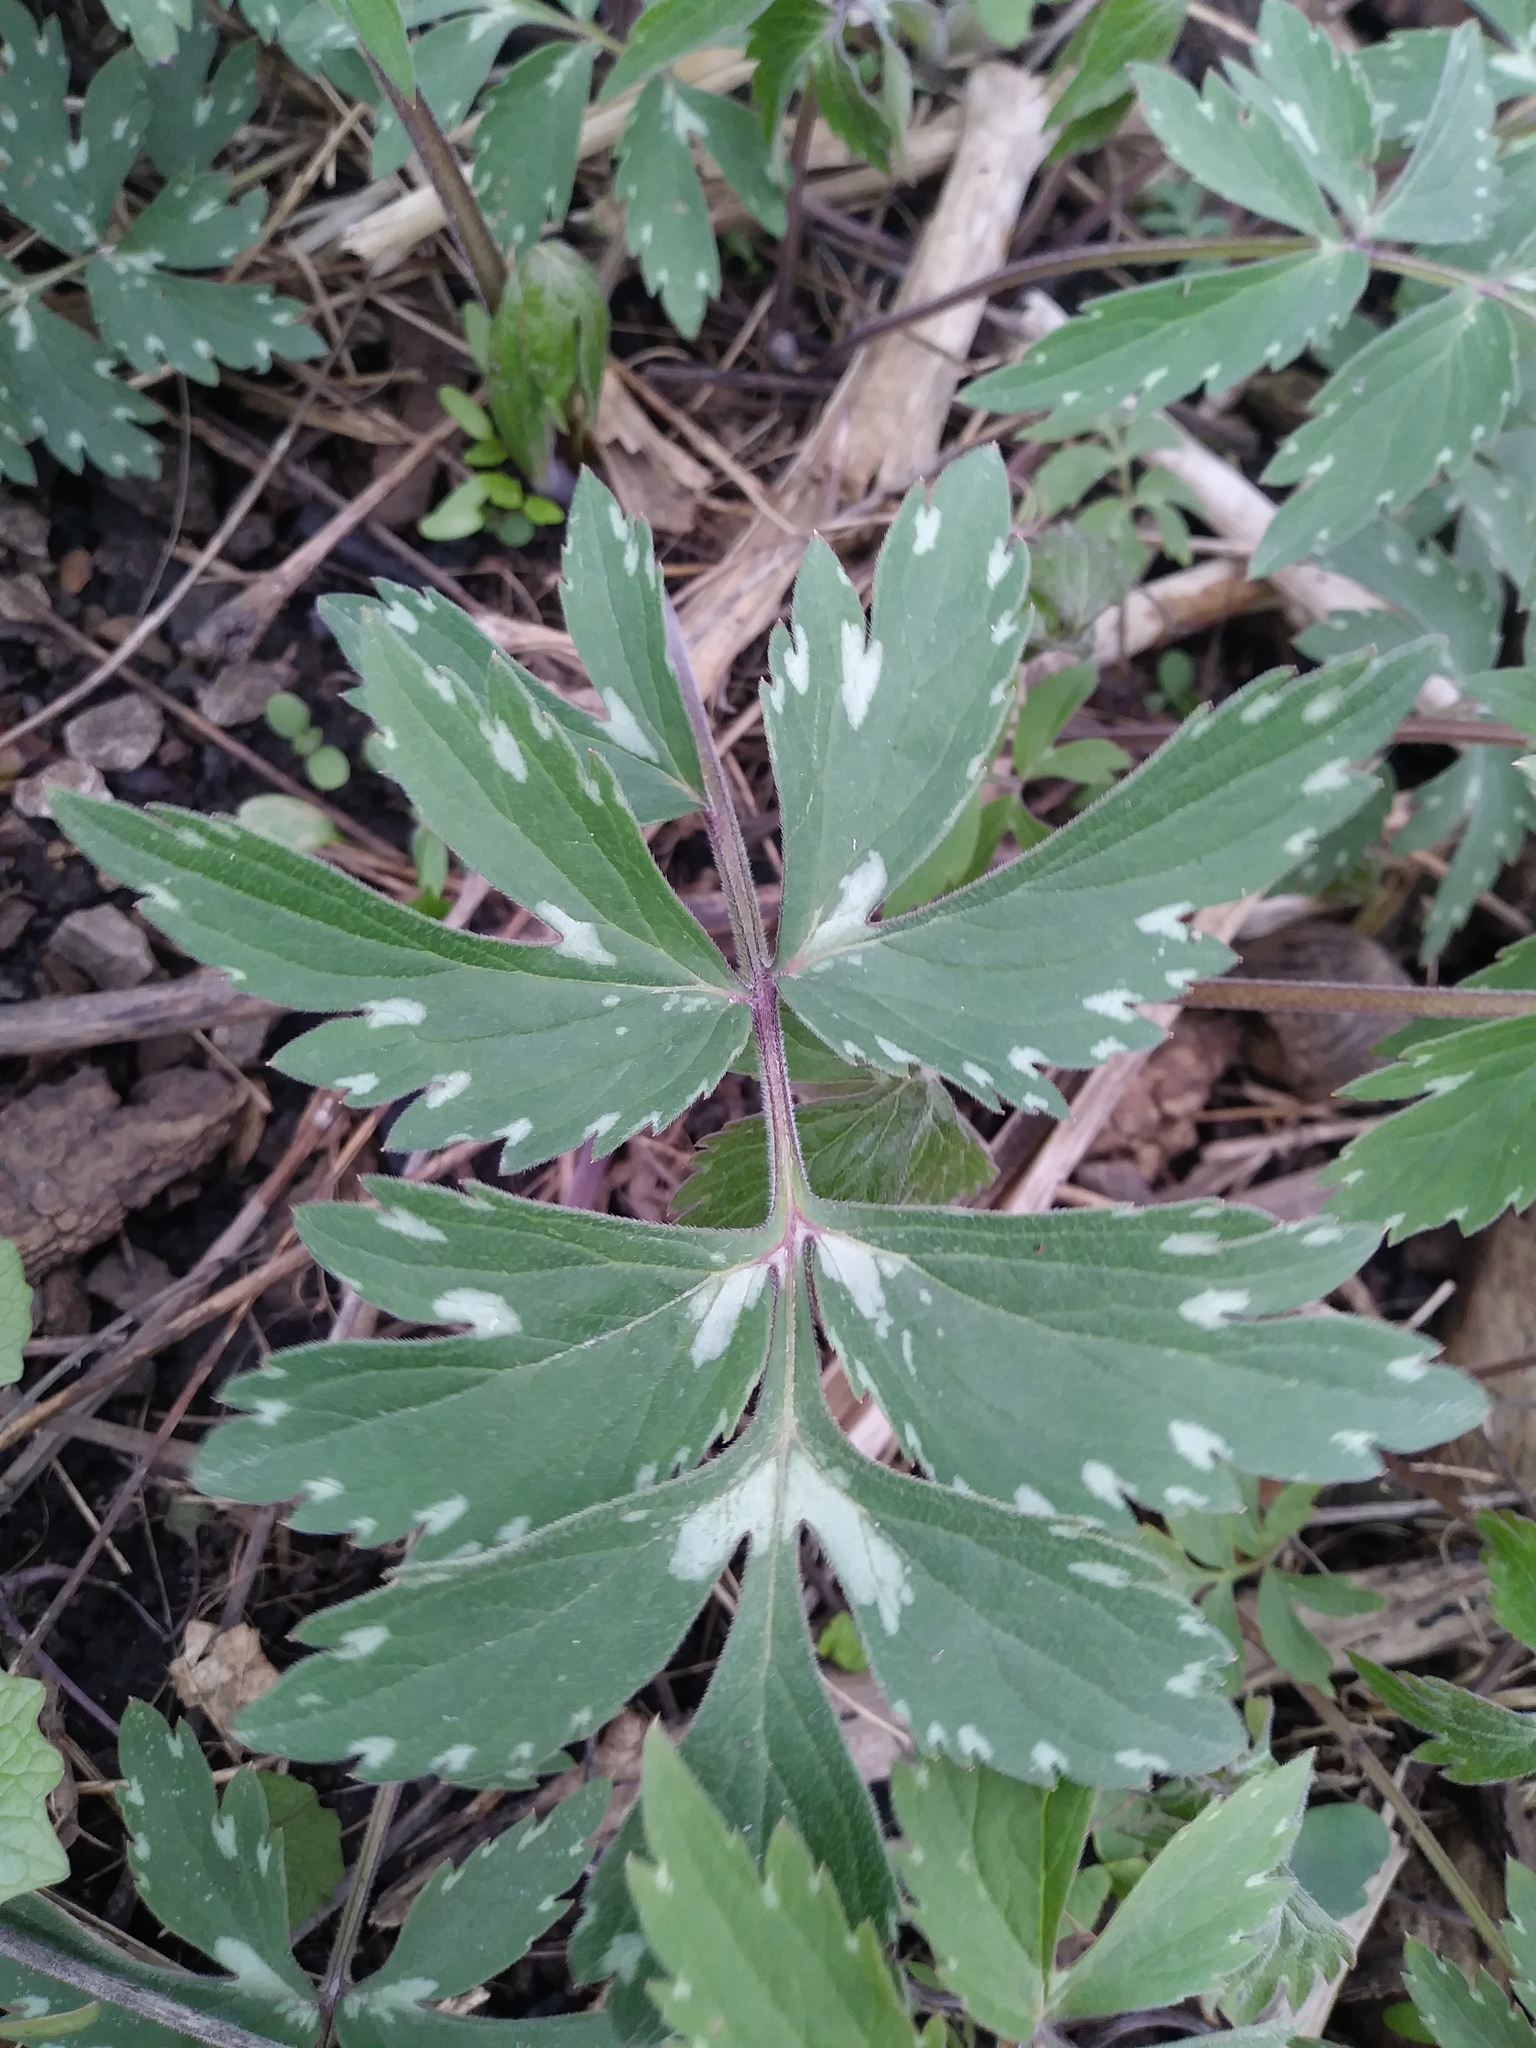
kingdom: Plantae
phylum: Tracheophyta
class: Magnoliopsida
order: Boraginales
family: Hydrophyllaceae
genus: Hydrophyllum
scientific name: Hydrophyllum virginianum
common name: Virginia waterleaf
